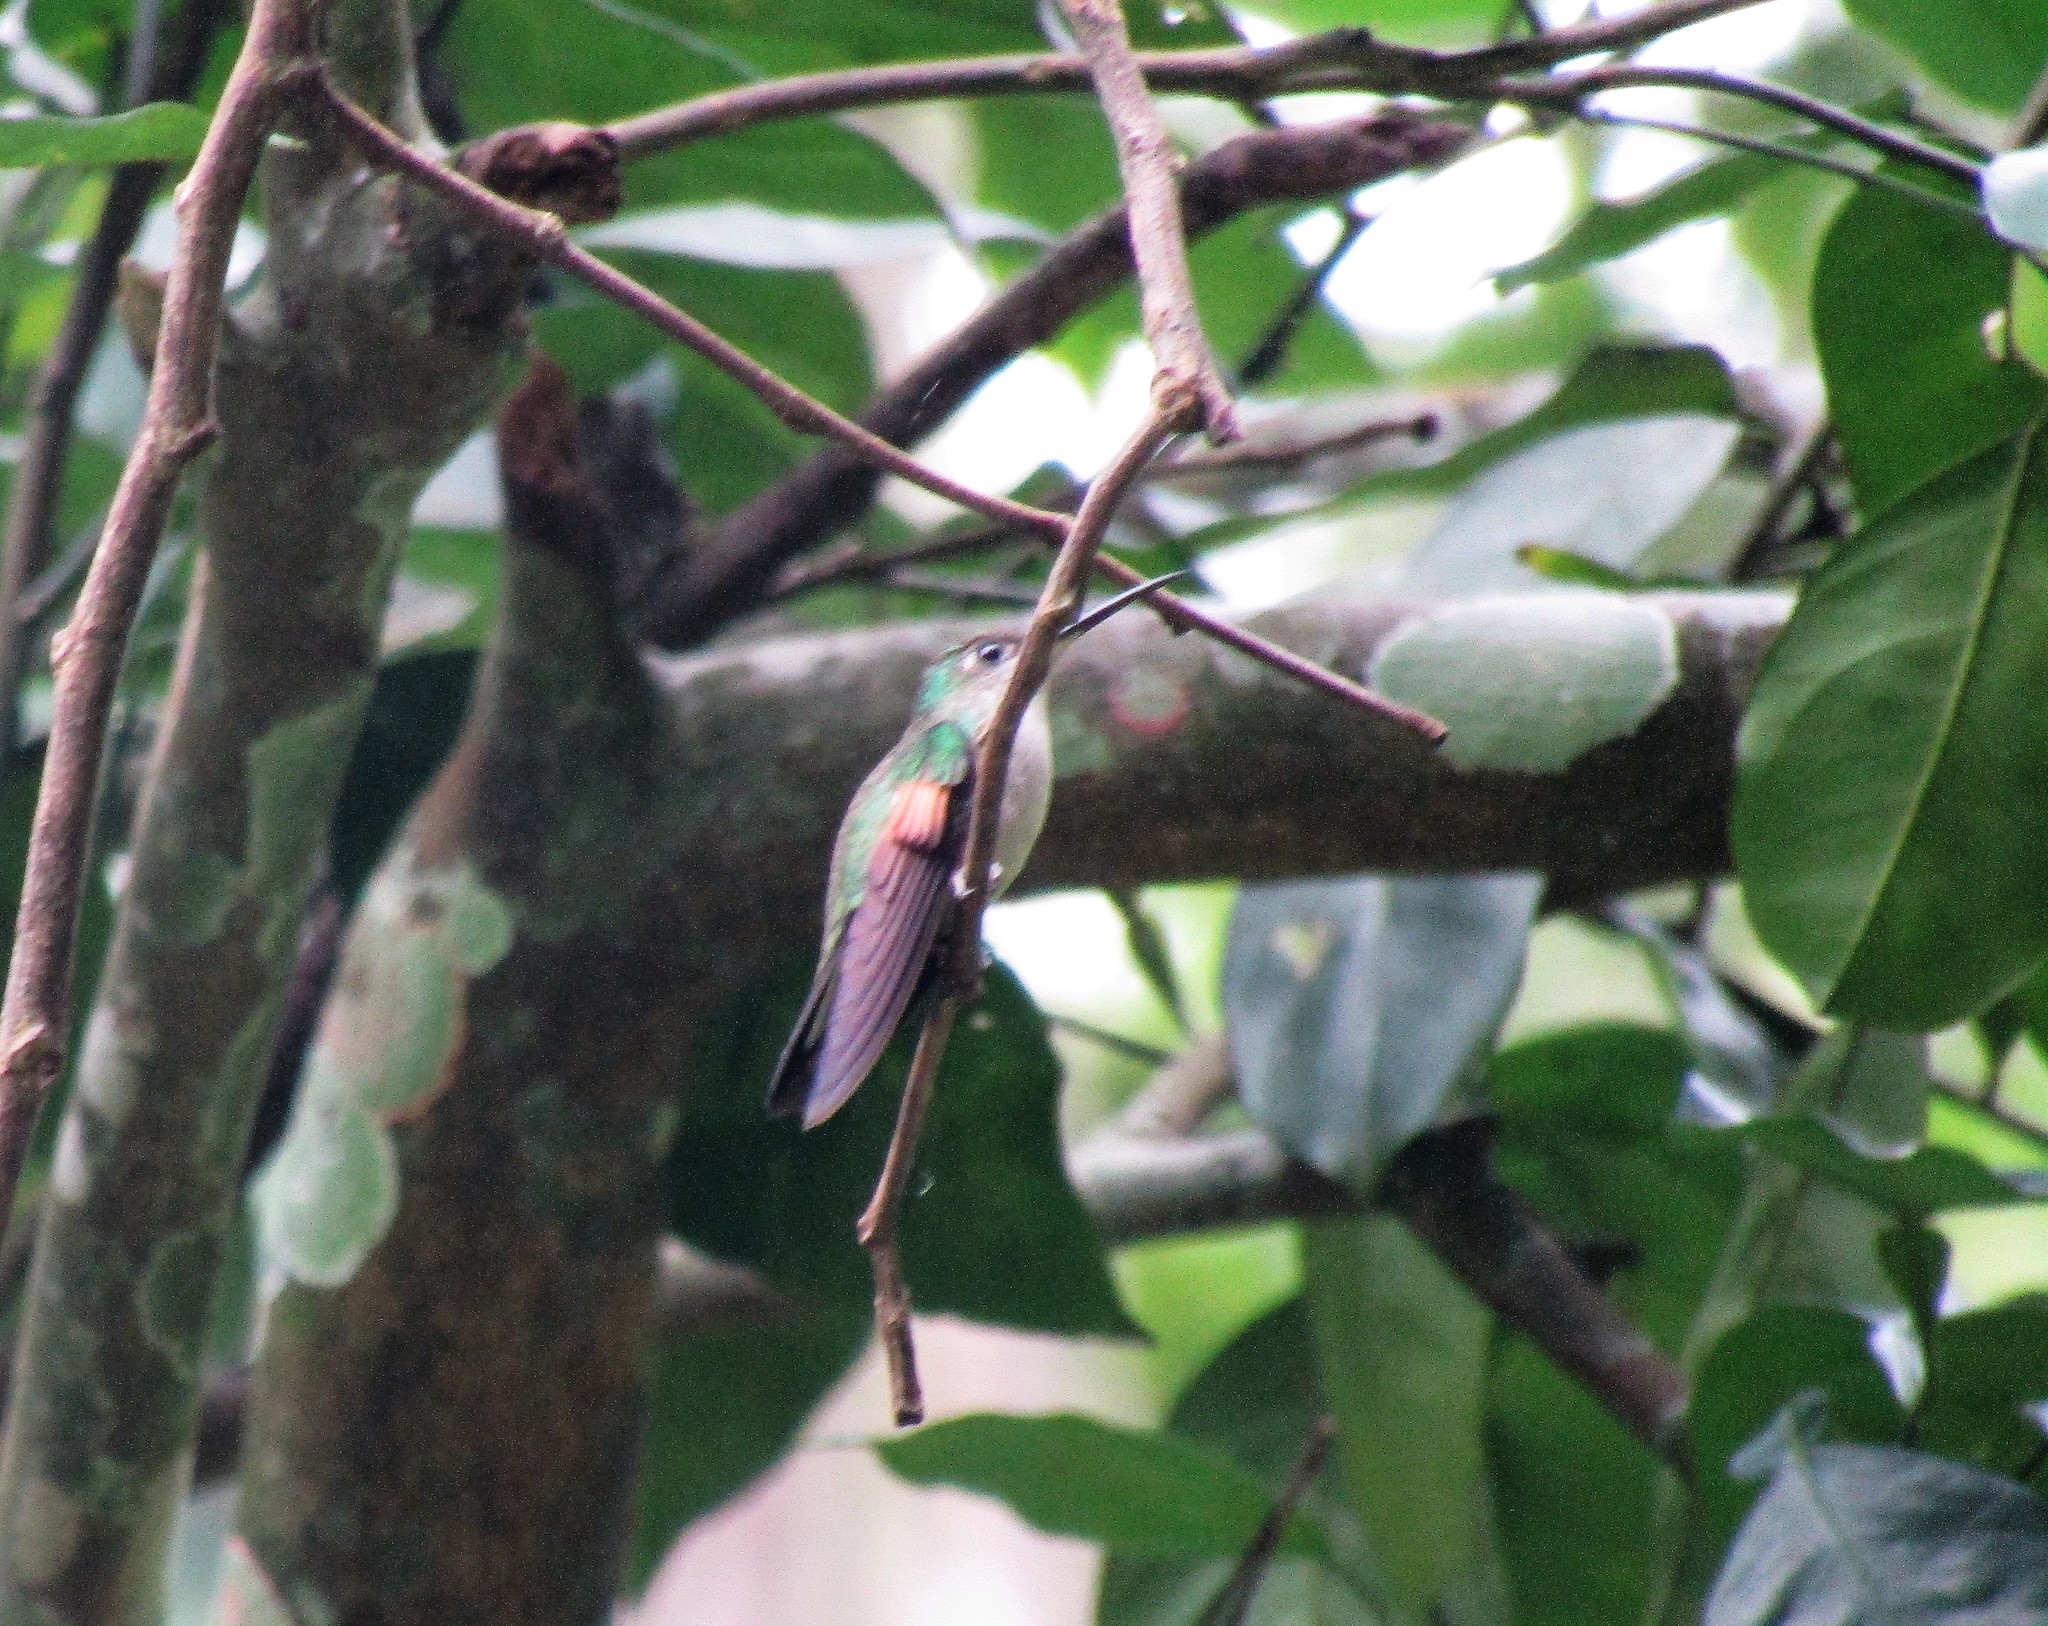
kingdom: Animalia
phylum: Chordata
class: Aves
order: Apodiformes
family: Trochilidae
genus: Eupherusa
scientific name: Eupherusa eximia
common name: Stripe-tailed hummingbird
